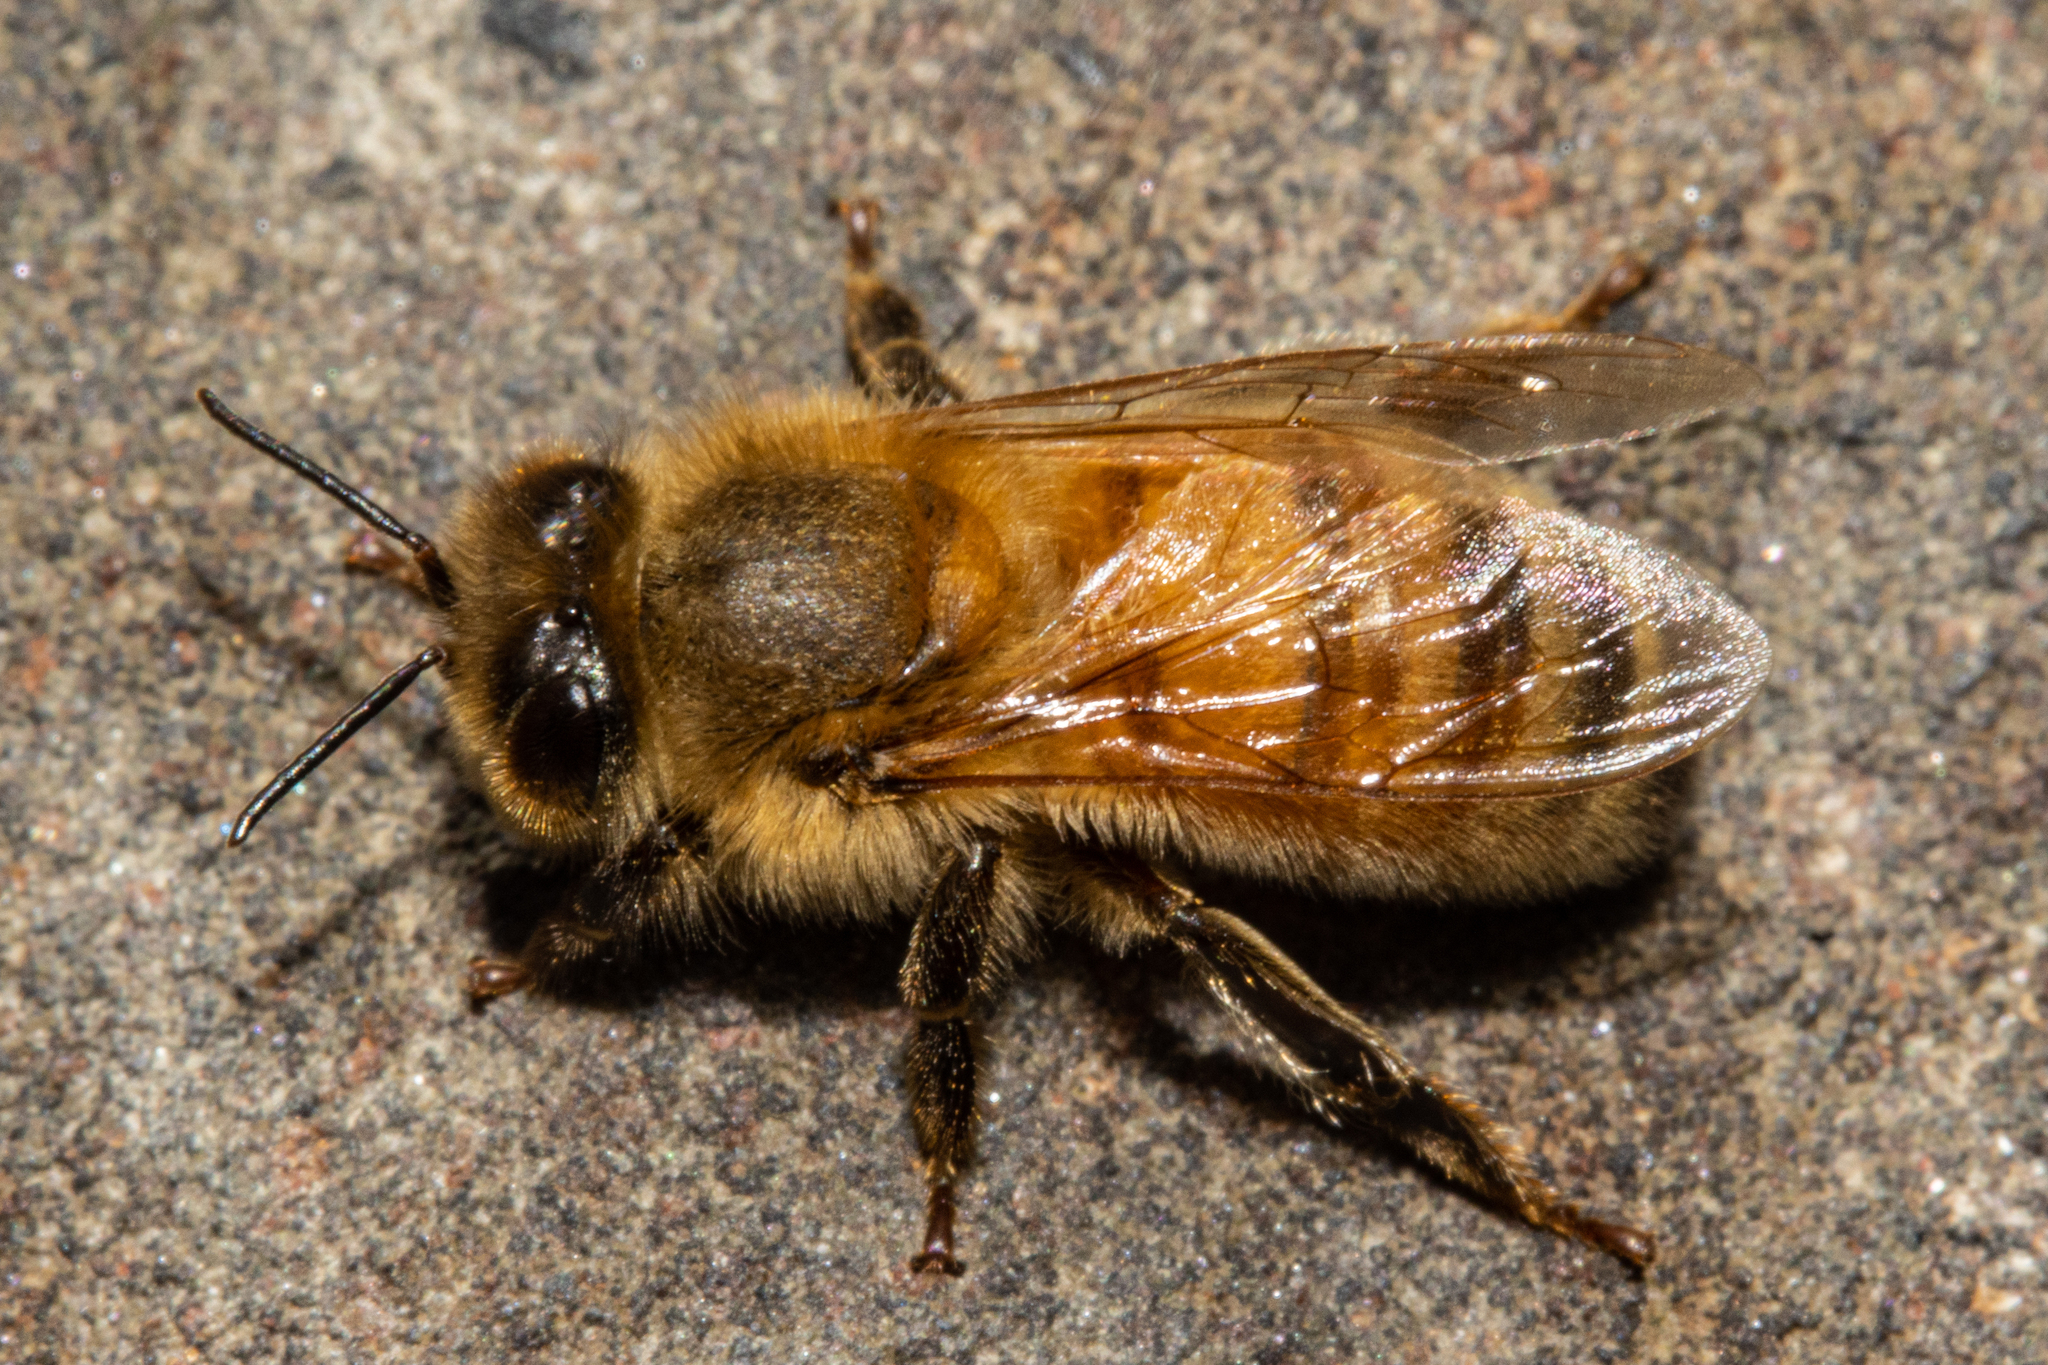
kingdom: Animalia
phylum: Arthropoda
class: Insecta
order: Hymenoptera
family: Apidae
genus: Apis
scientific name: Apis mellifera
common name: Honey bee
